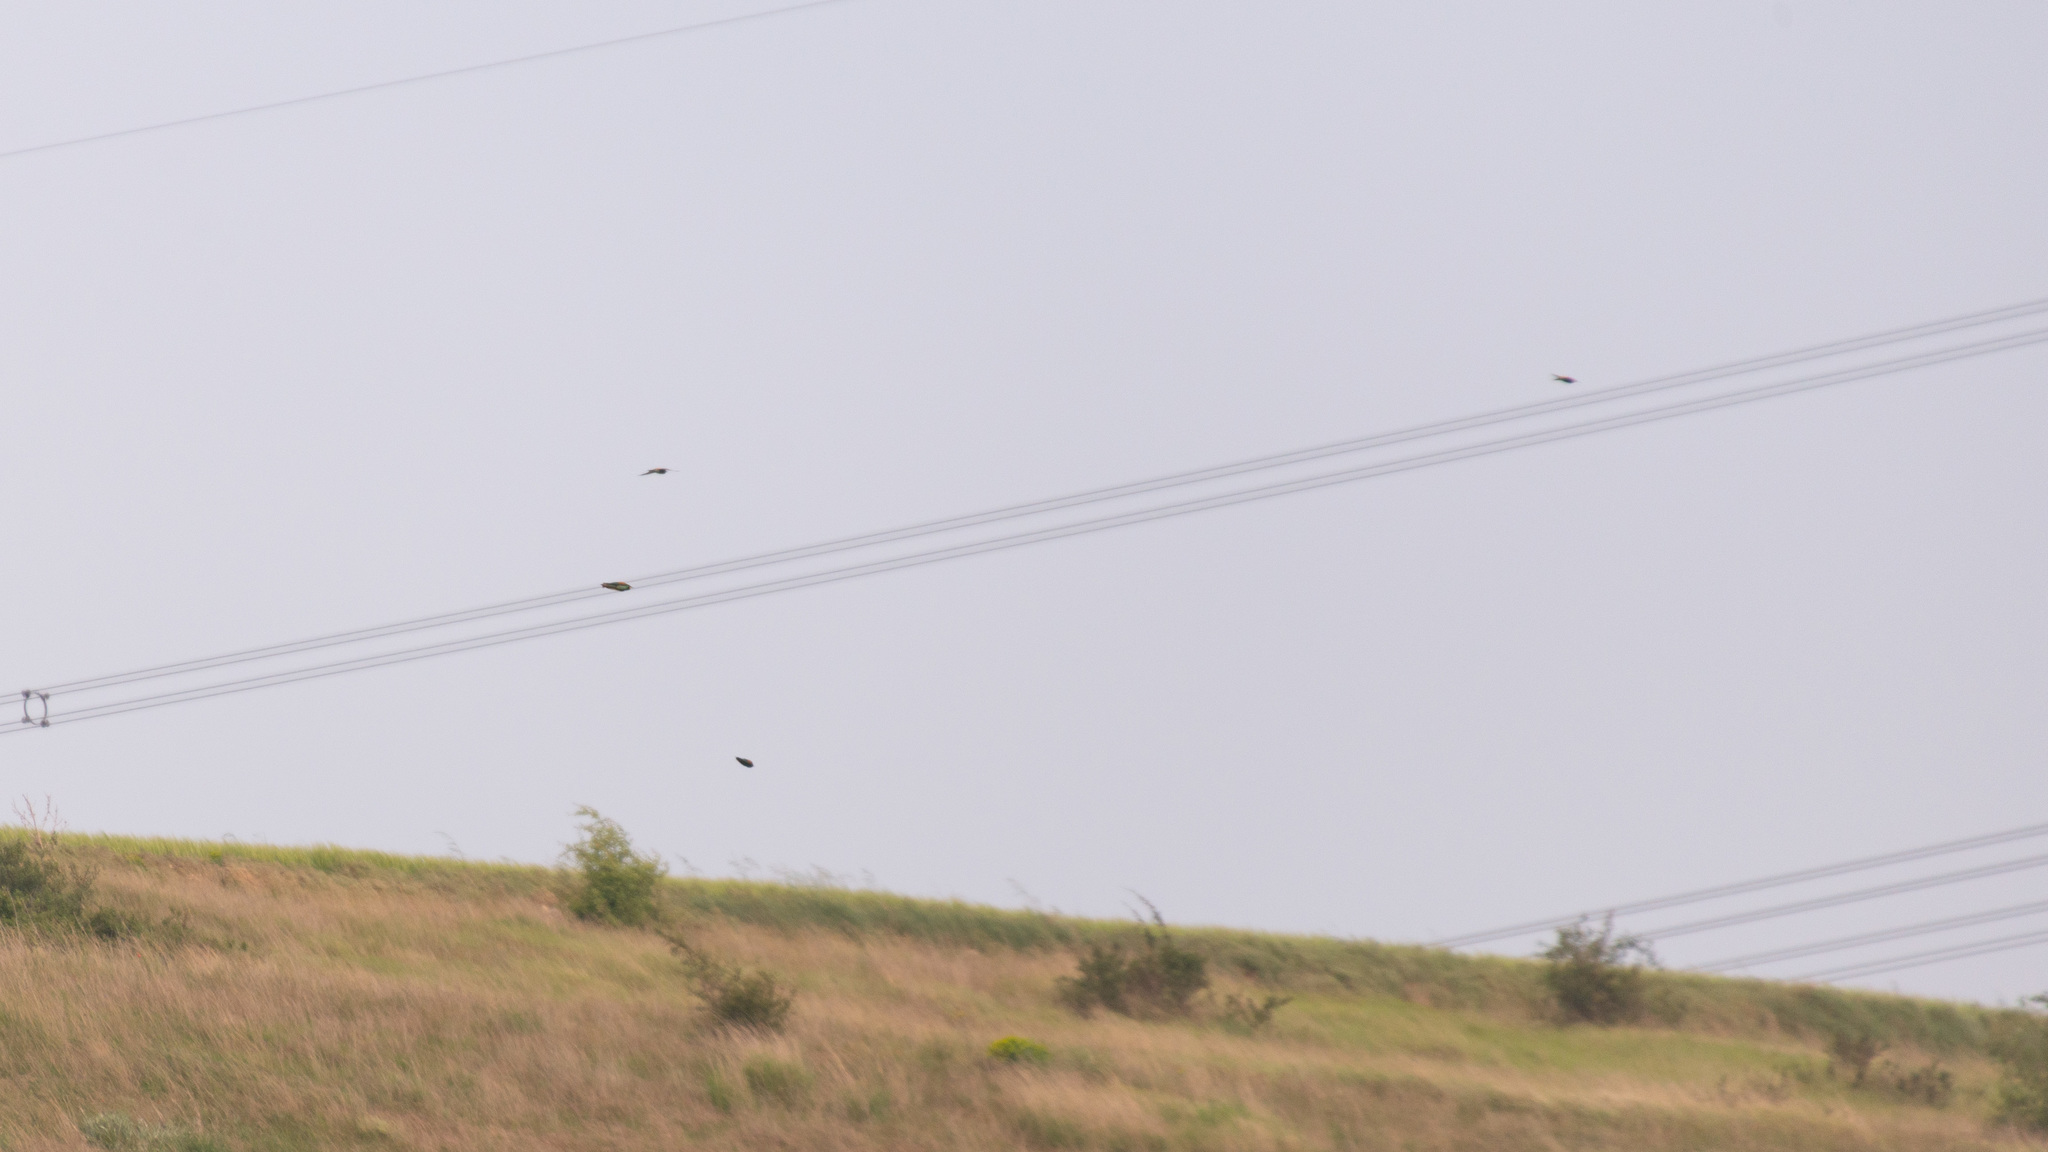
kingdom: Animalia
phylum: Chordata
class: Aves
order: Coraciiformes
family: Meropidae
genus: Merops
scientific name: Merops apiaster
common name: European bee-eater
